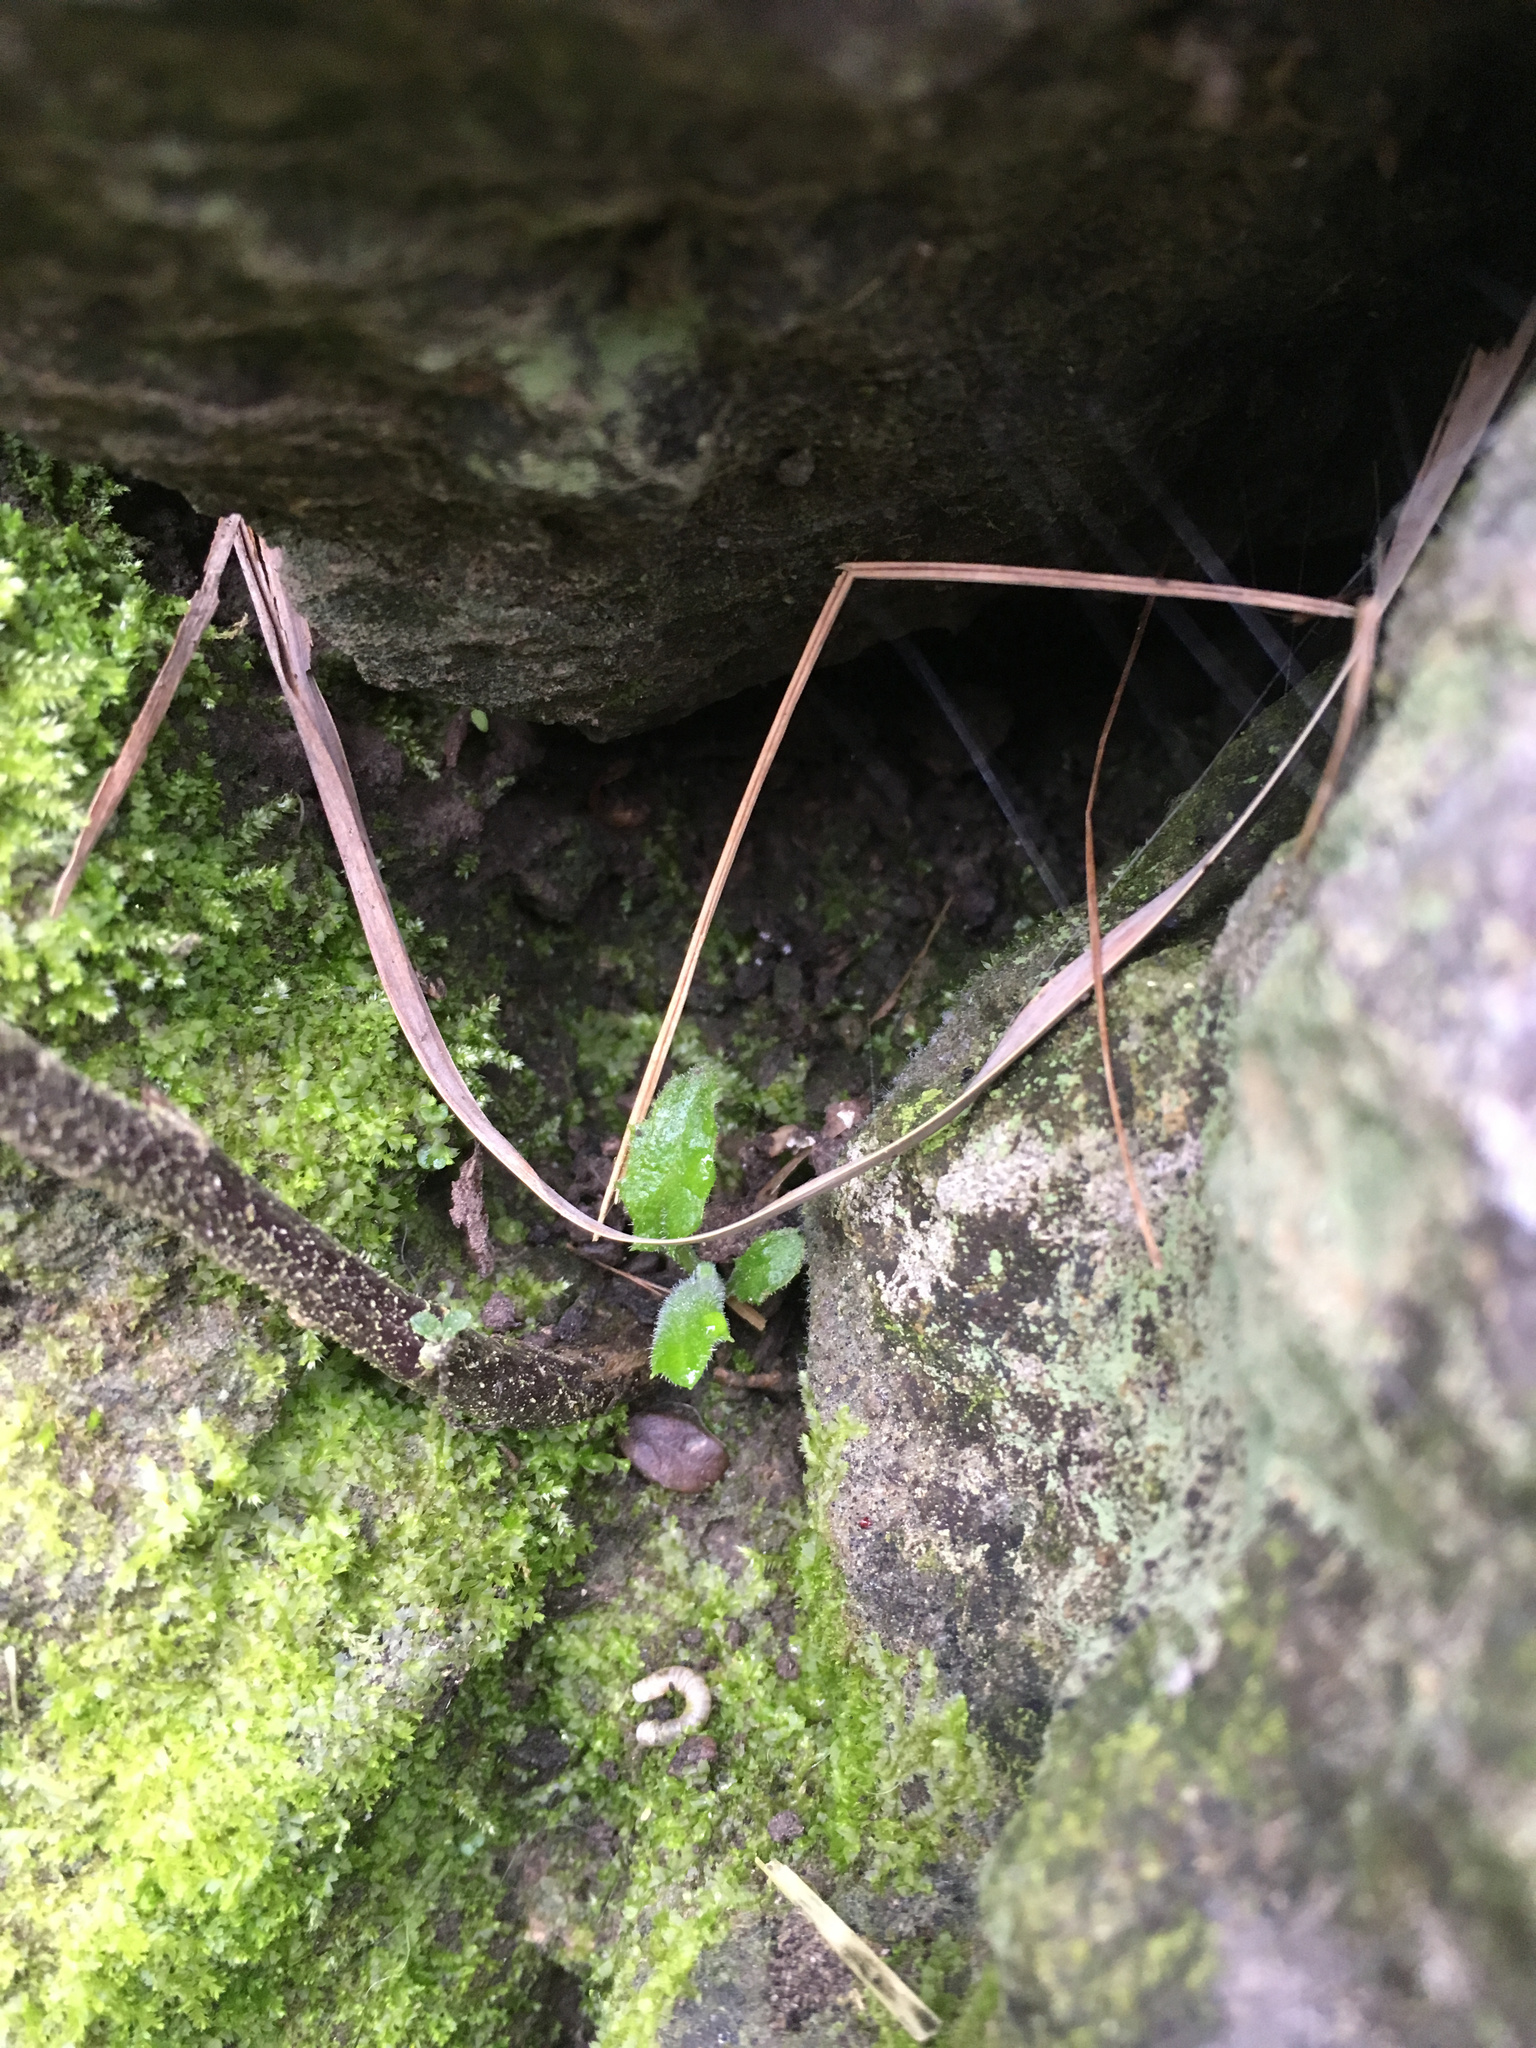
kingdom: Plantae
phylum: Tracheophyta
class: Magnoliopsida
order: Asterales
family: Asteraceae
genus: Senecio
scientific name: Senecio minimus
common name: Toothed fireweed
